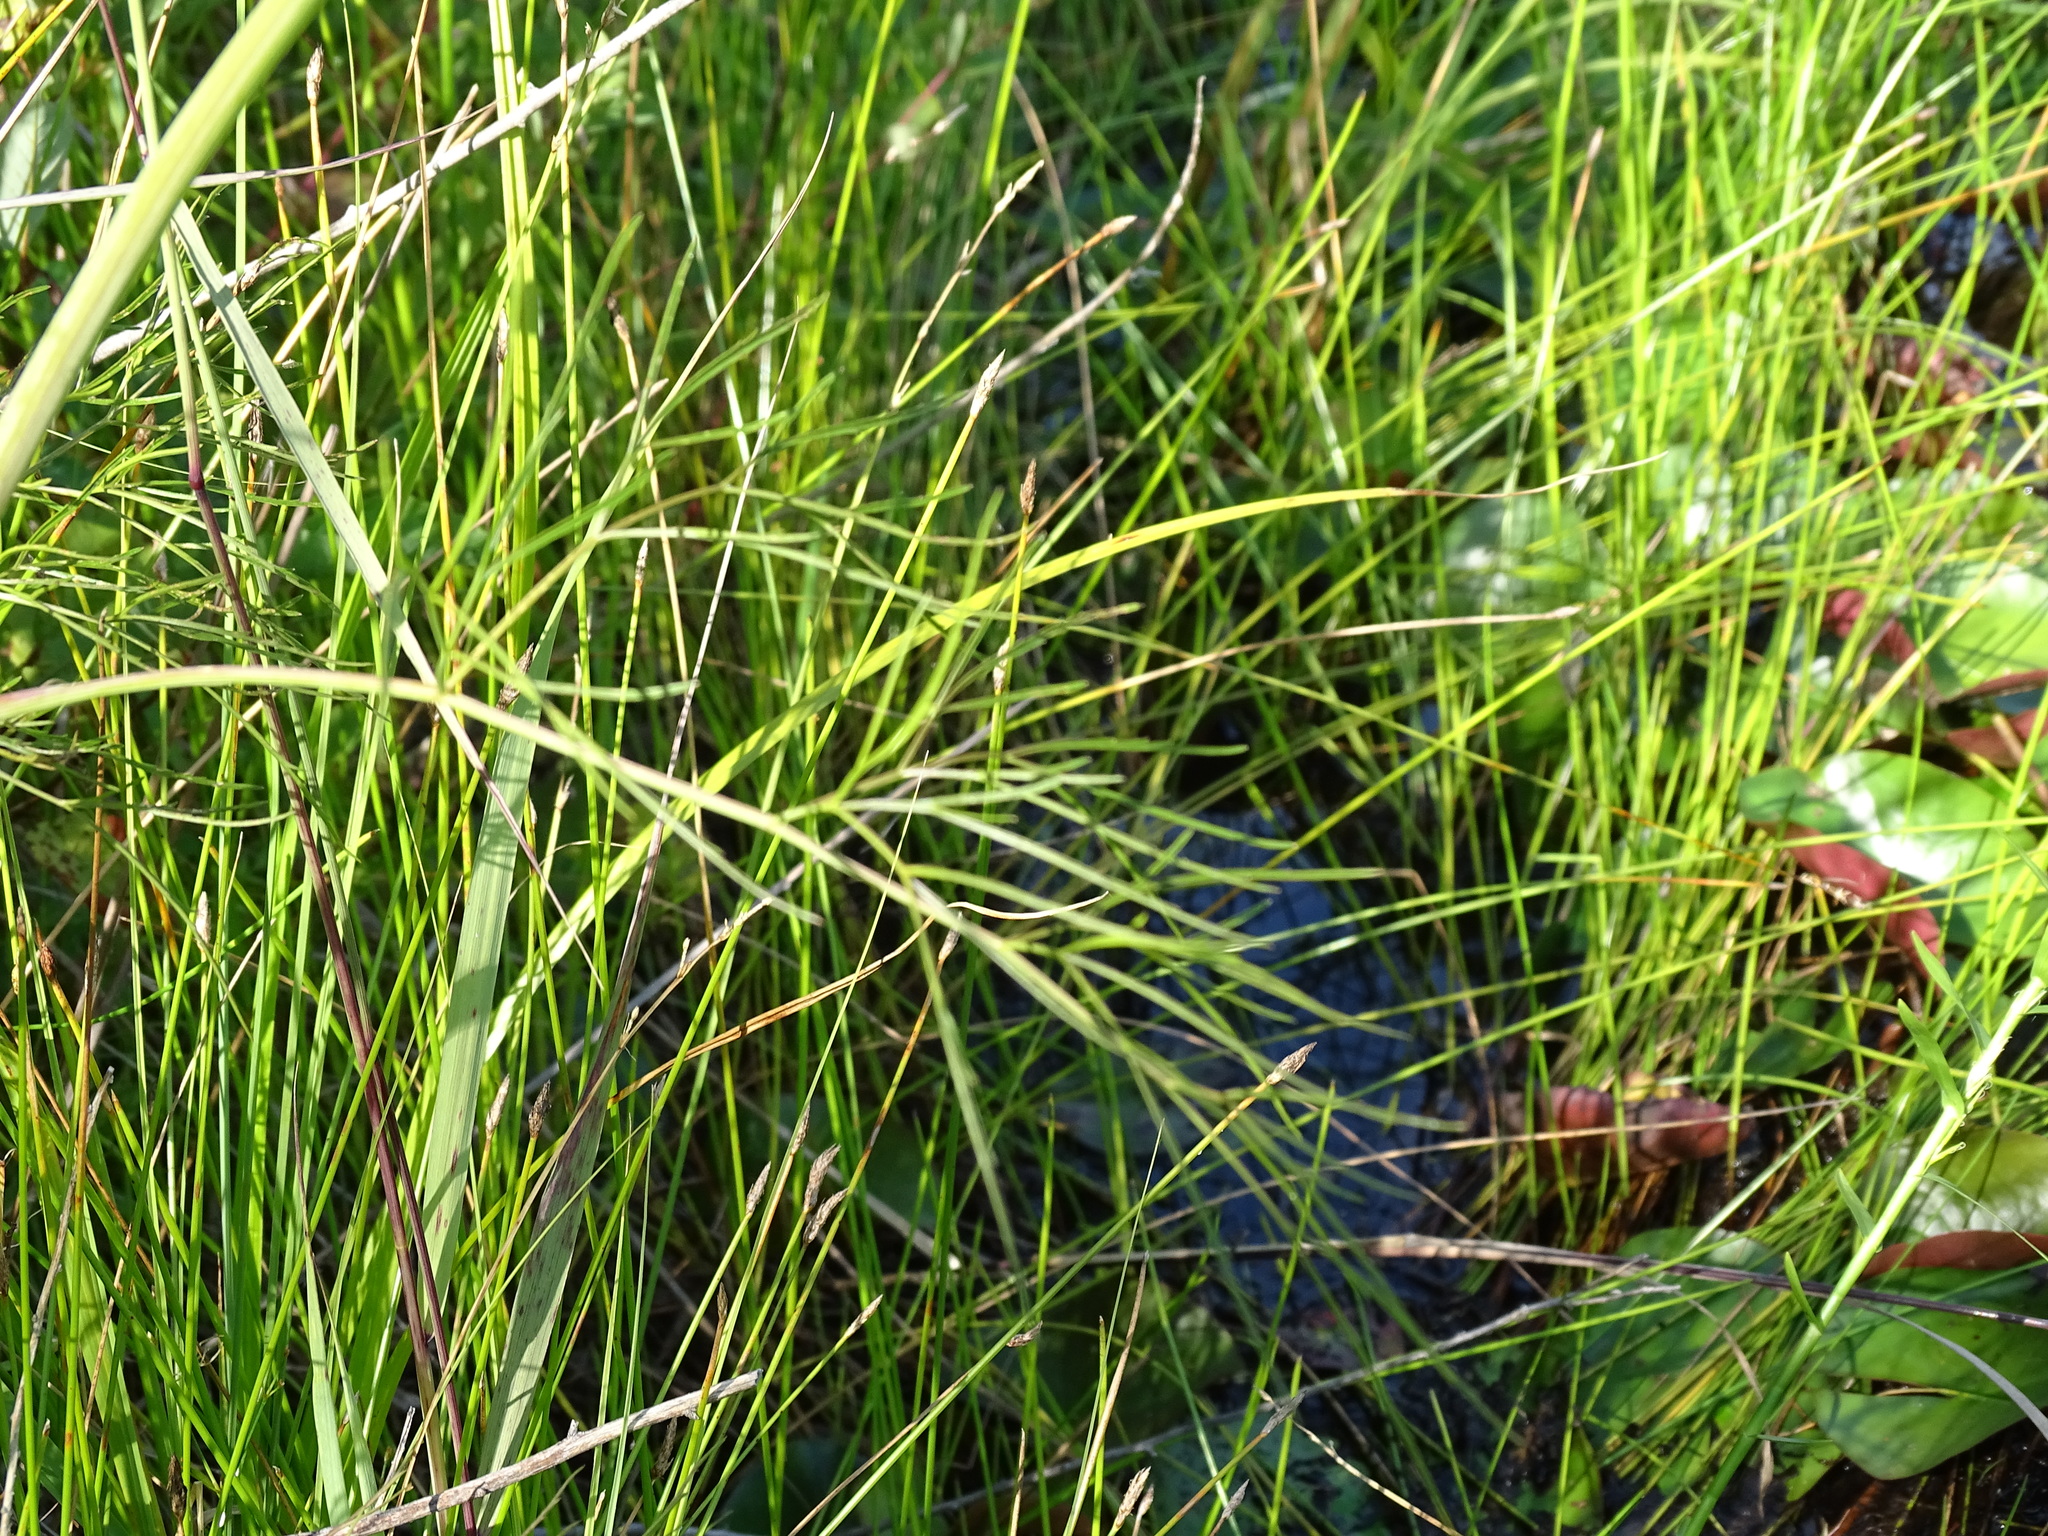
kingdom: Plantae
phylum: Tracheophyta
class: Magnoliopsida
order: Apiales
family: Apiaceae
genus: Cicuta
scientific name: Cicuta bulbifera
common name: Bulb-bearing water-hemlock
